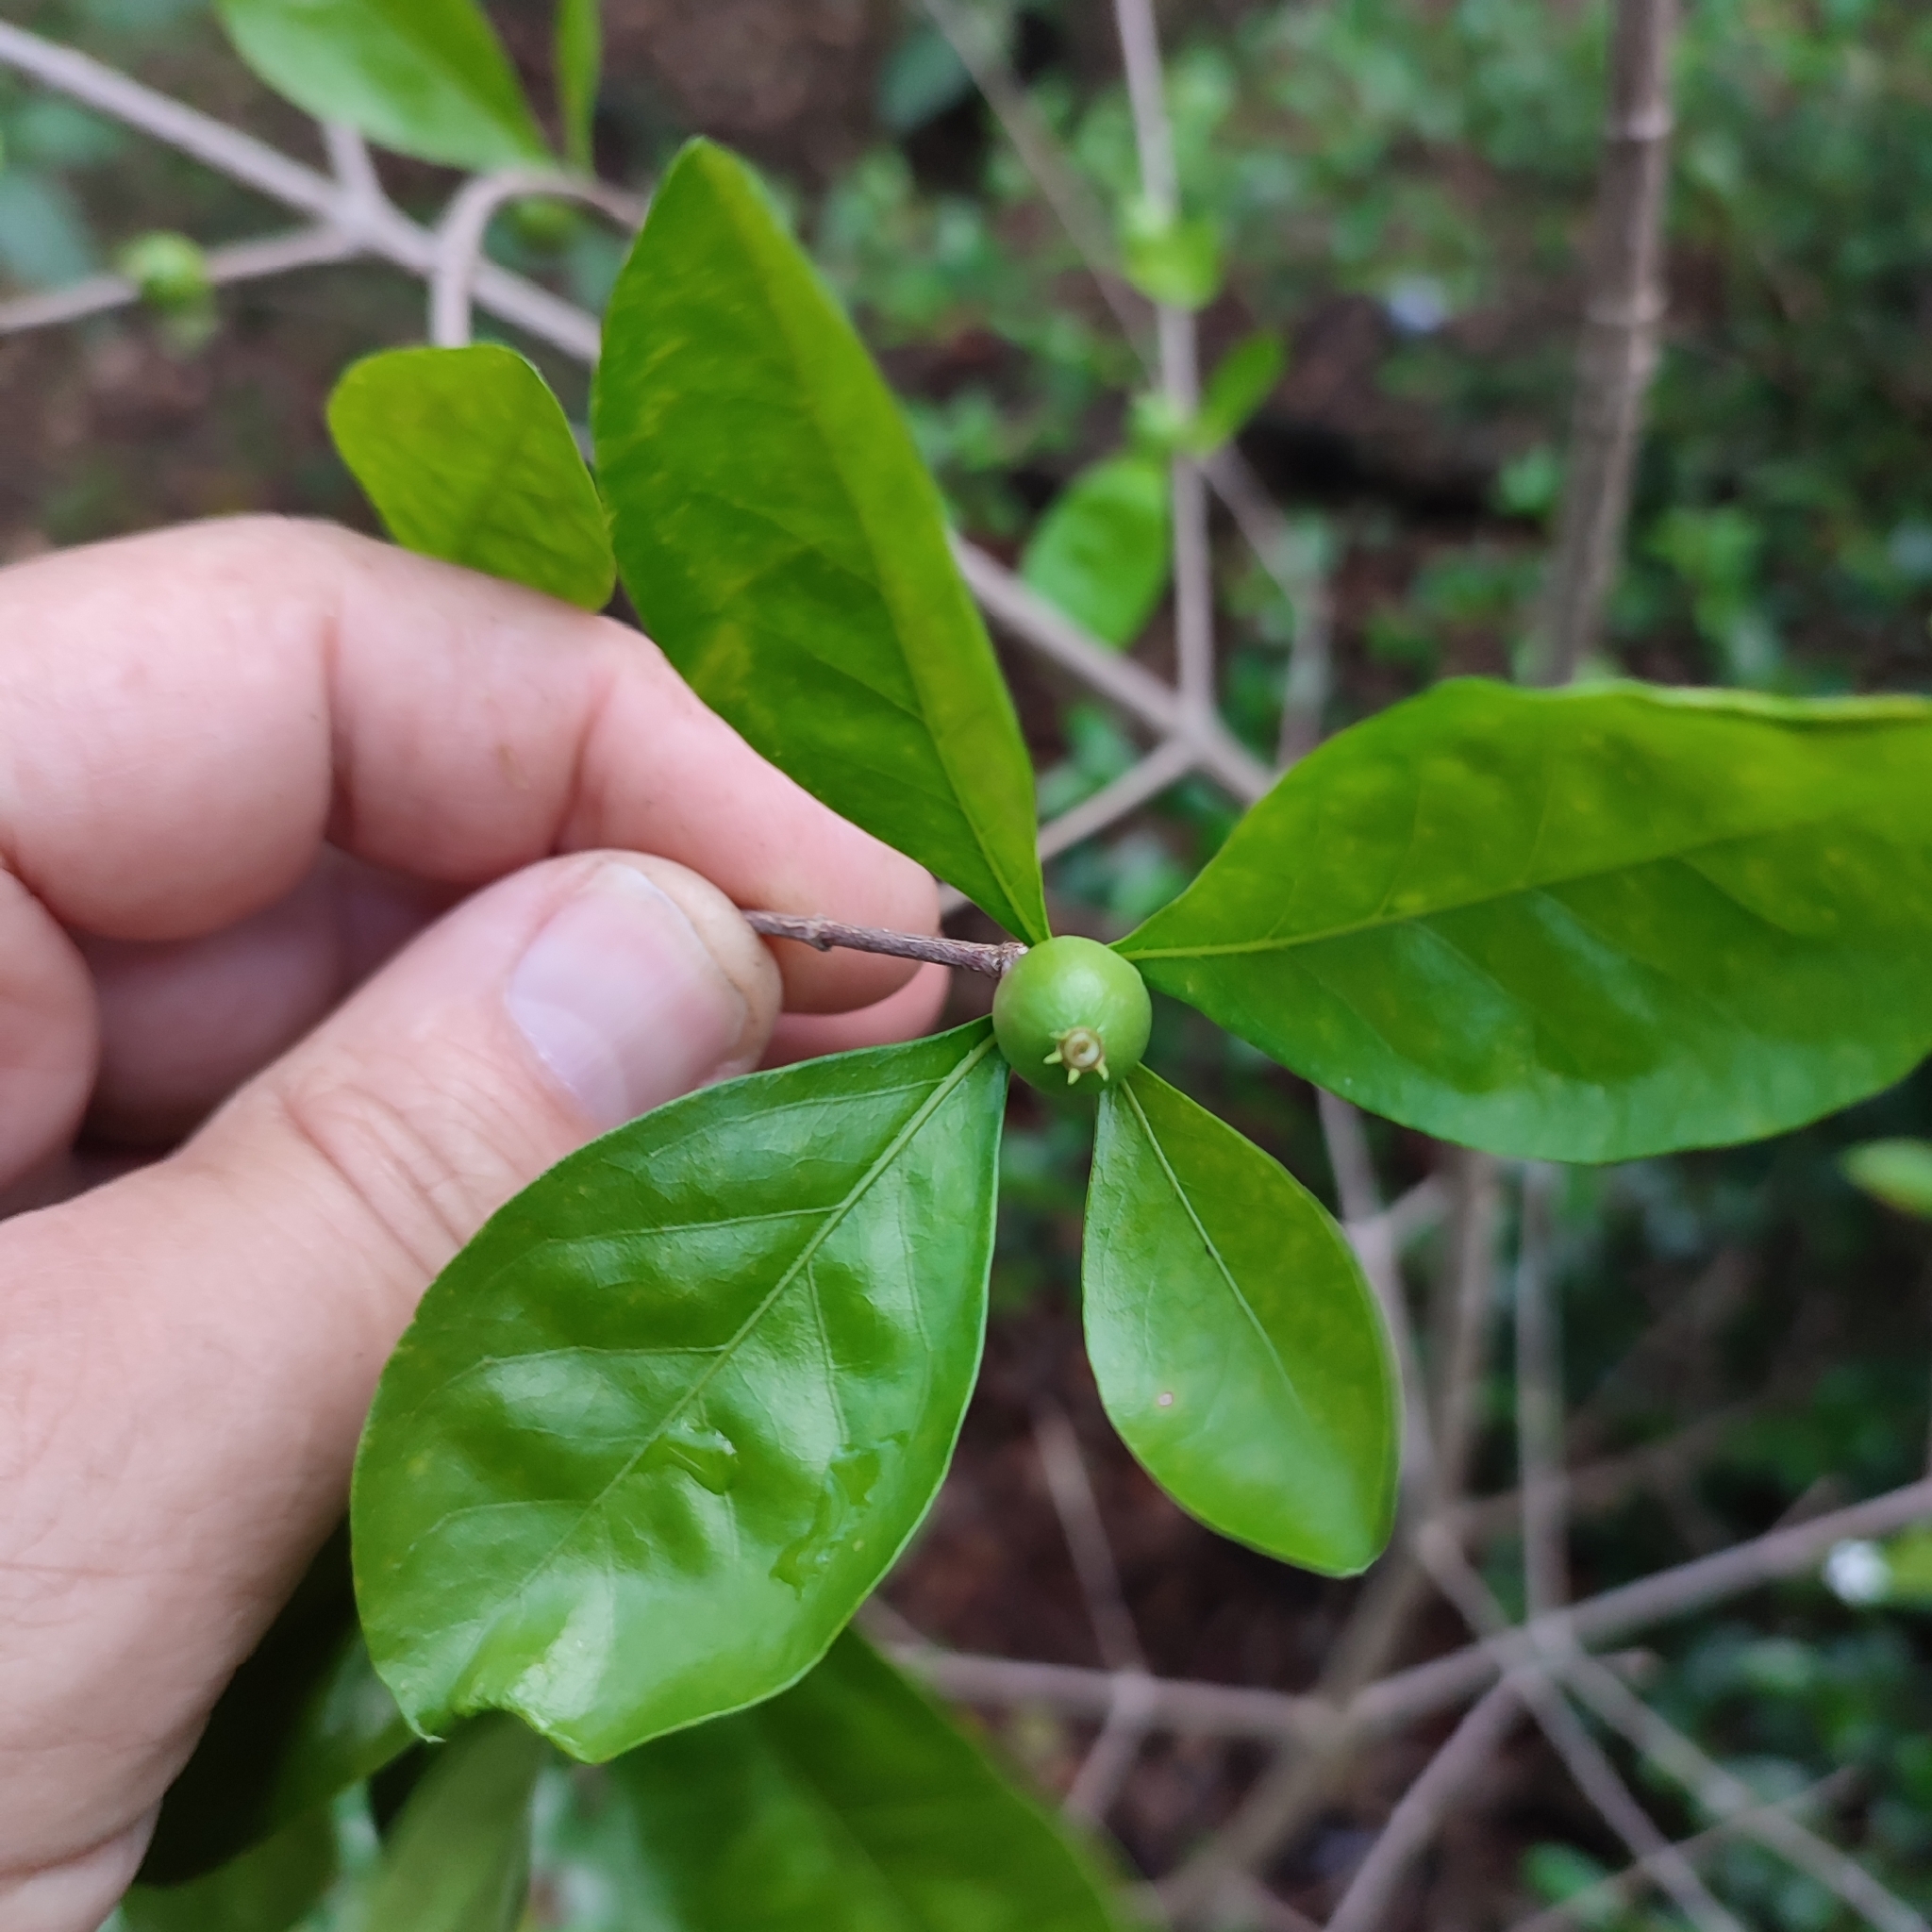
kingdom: Plantae
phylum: Tracheophyta
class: Magnoliopsida
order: Gentianales
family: Rubiaceae
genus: Randia
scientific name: Randia aculeata
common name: Inkberry
